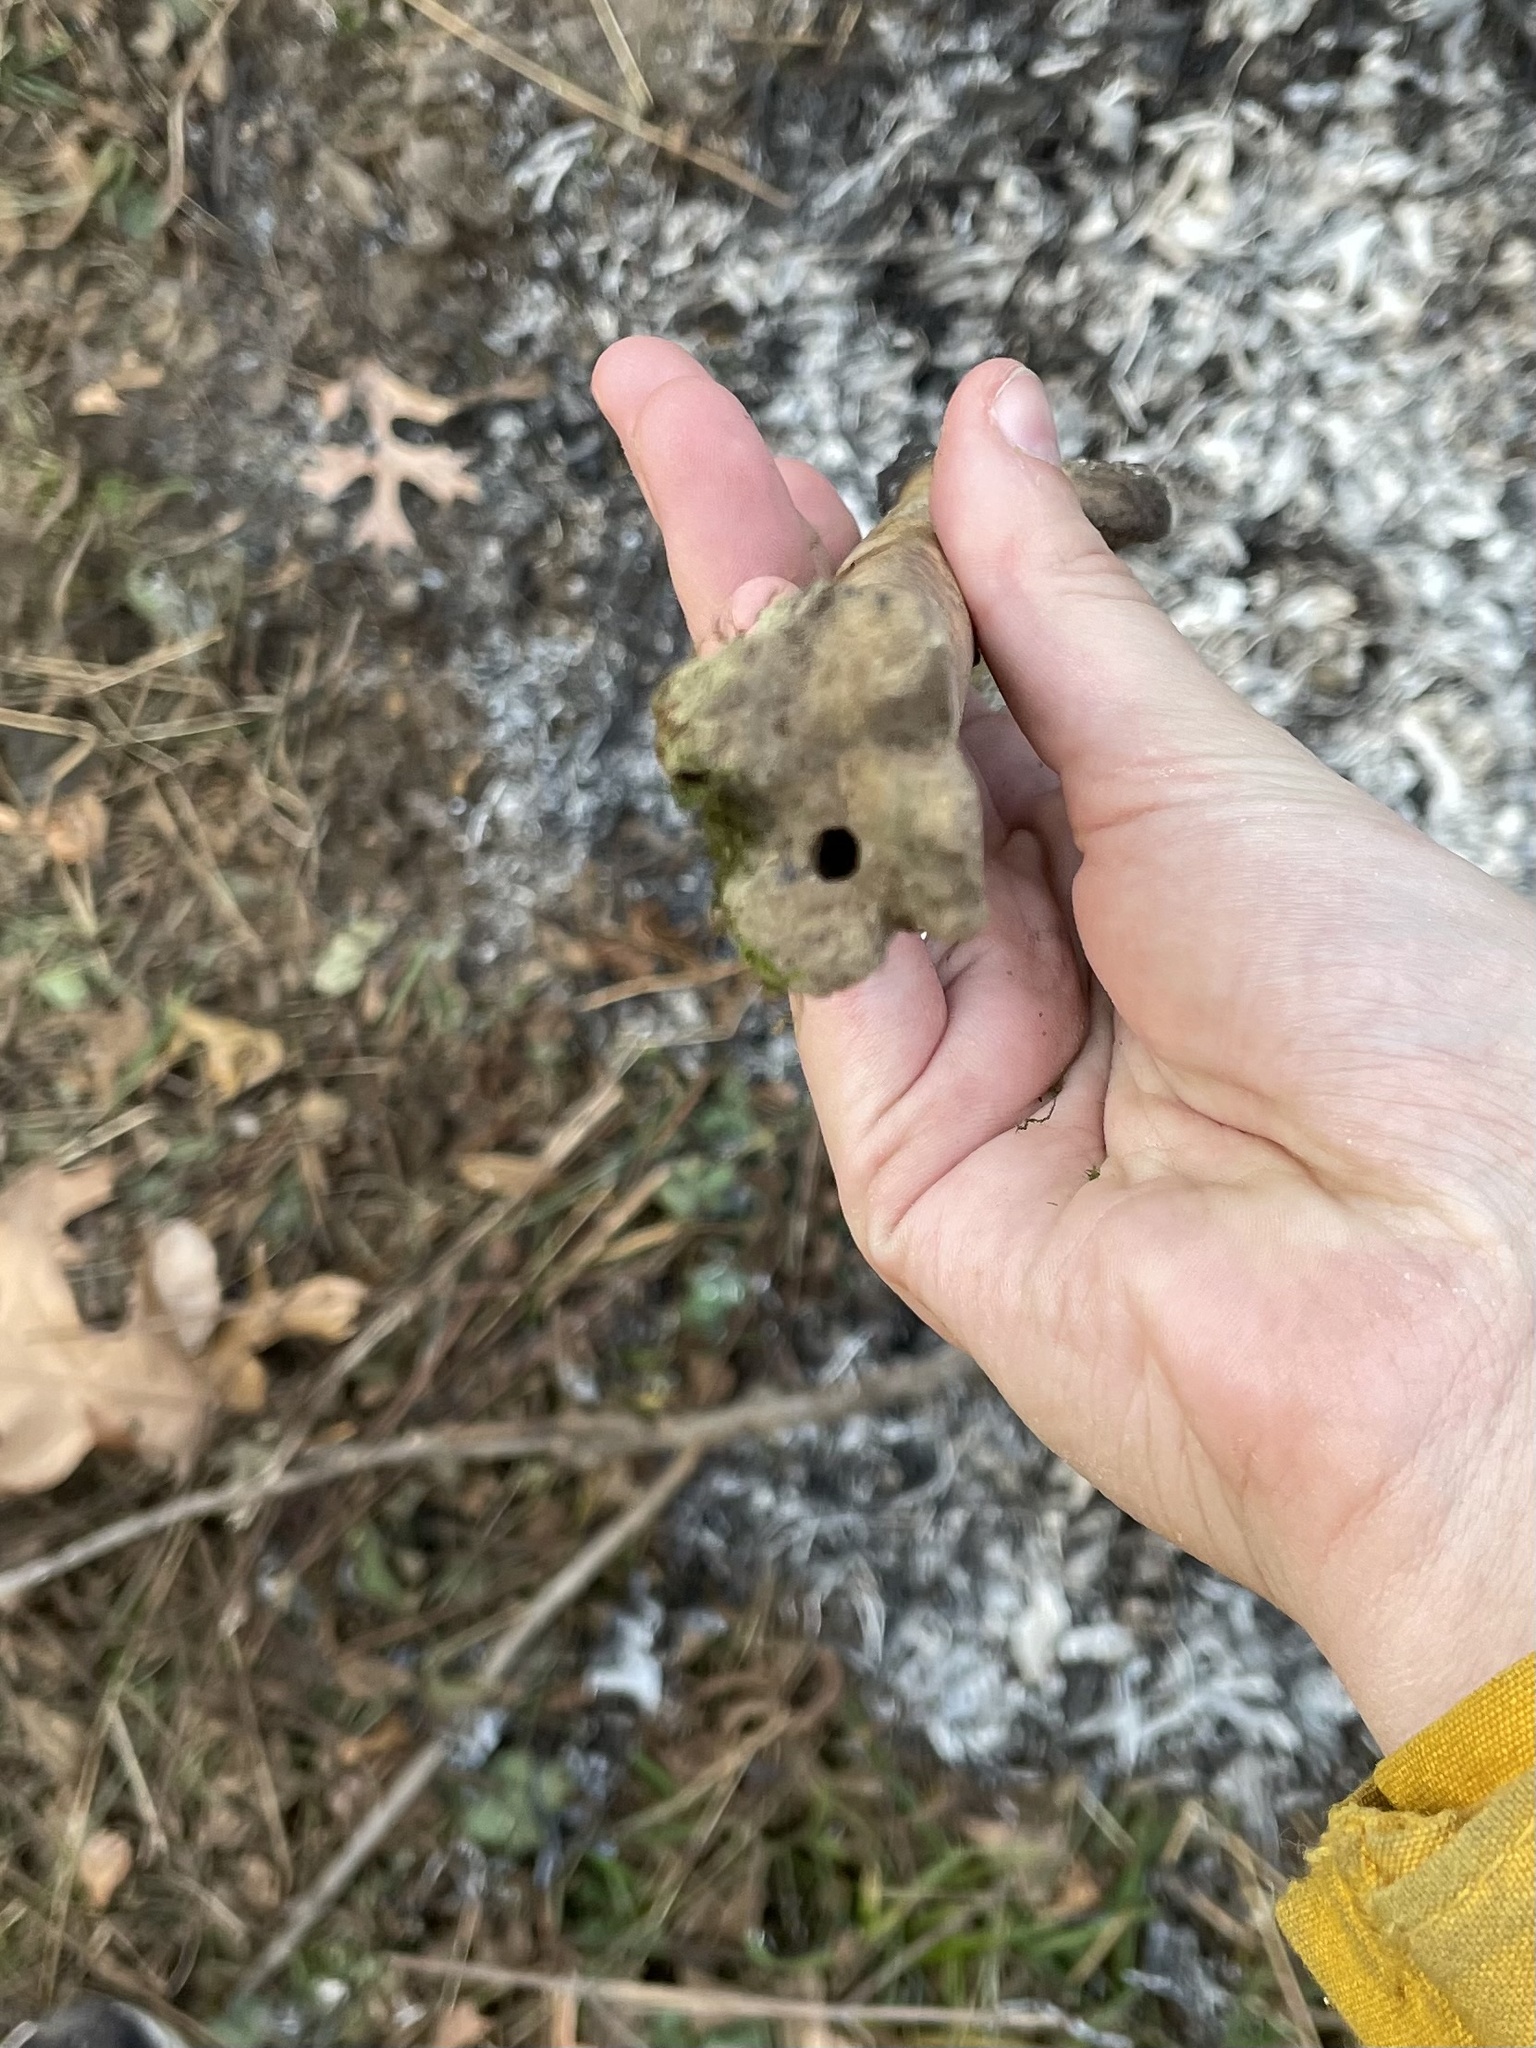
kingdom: Animalia
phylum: Chordata
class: Mammalia
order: Artiodactyla
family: Cervidae
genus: Odocoileus
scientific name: Odocoileus virginianus
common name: White-tailed deer
